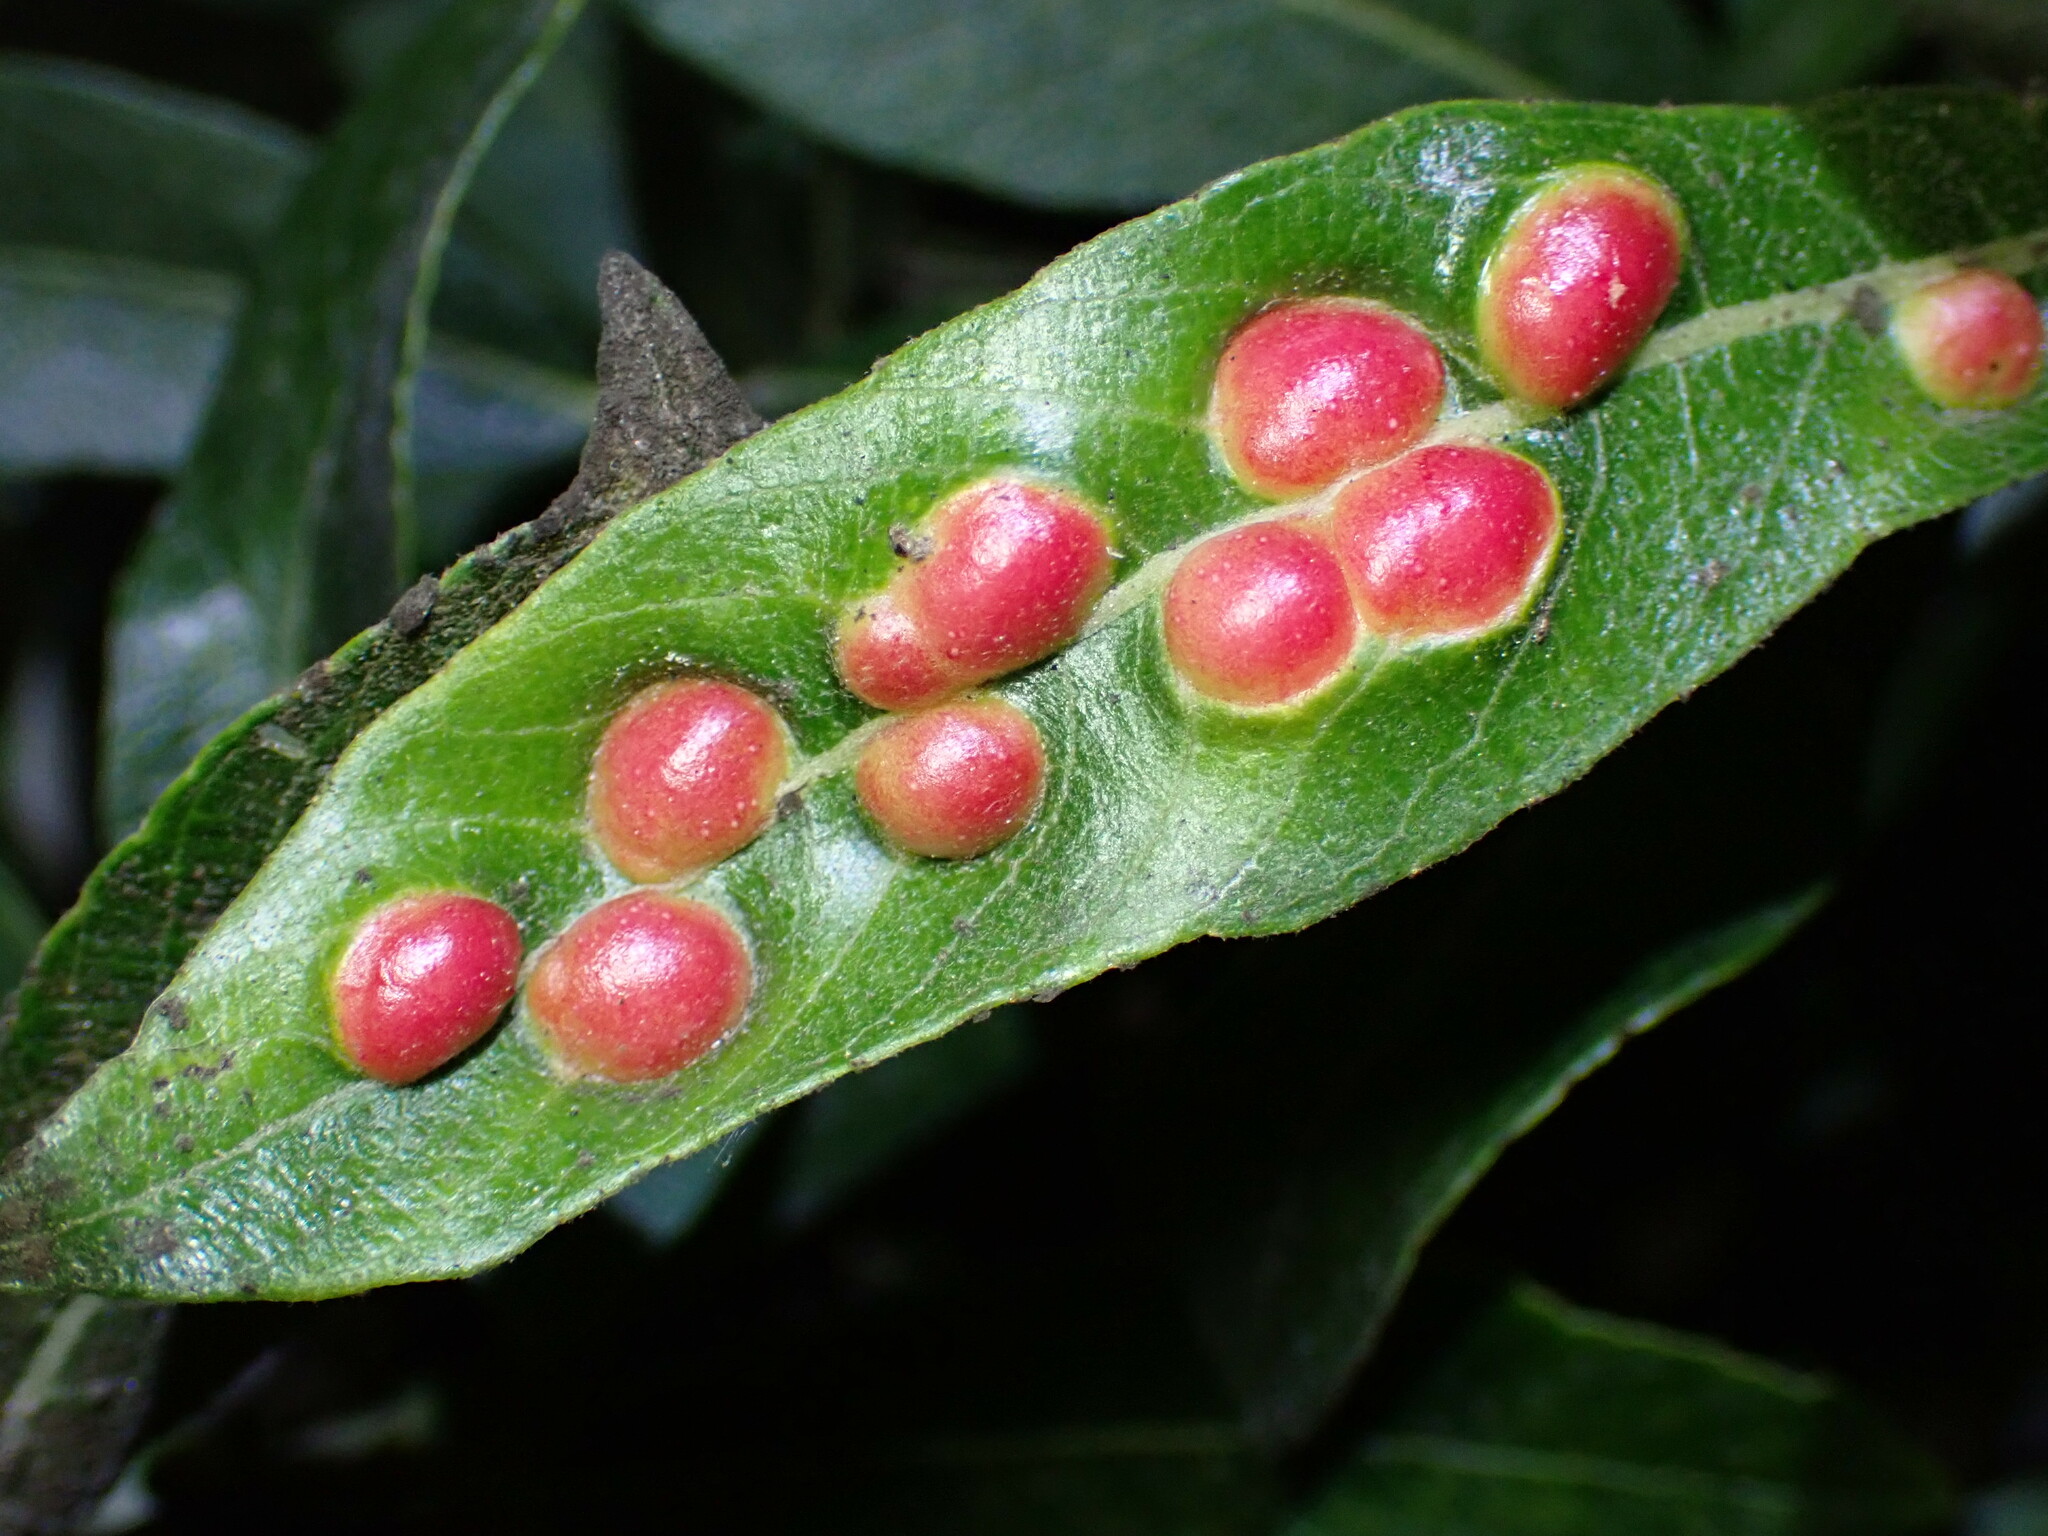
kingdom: Animalia
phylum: Arthropoda
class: Insecta
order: Hymenoptera
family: Tenthredinidae
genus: Euura
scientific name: Euura
